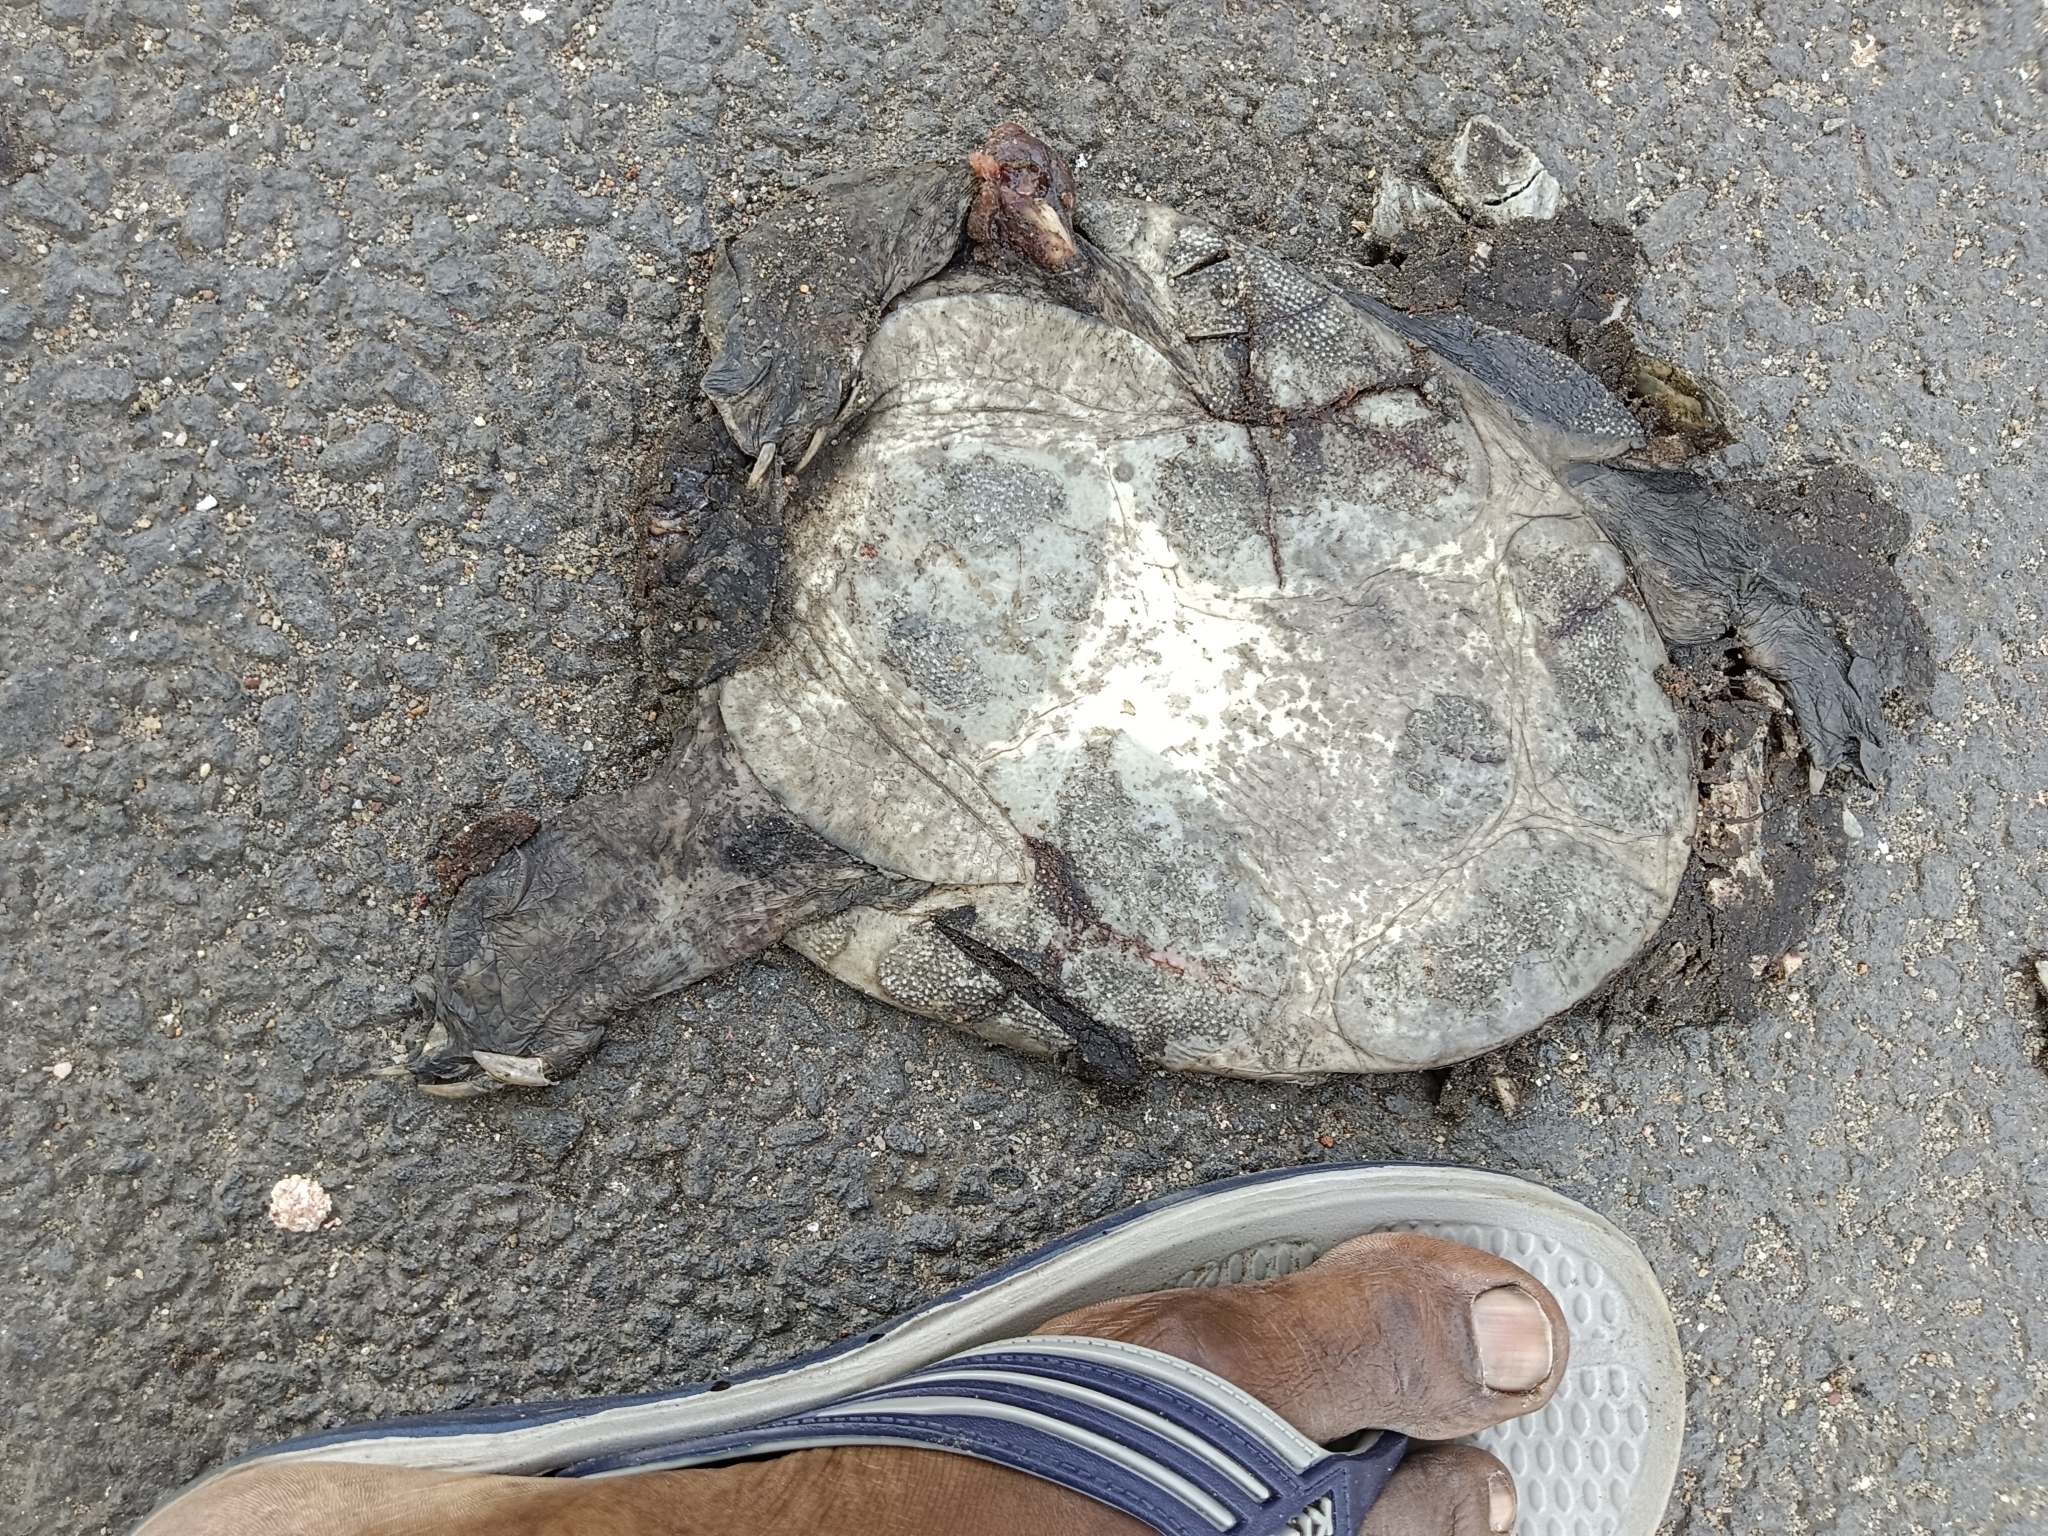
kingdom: Animalia
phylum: Chordata
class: Testudines
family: Trionychidae
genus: Lissemys
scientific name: Lissemys punctata
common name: Indian flap-shelled turtle
